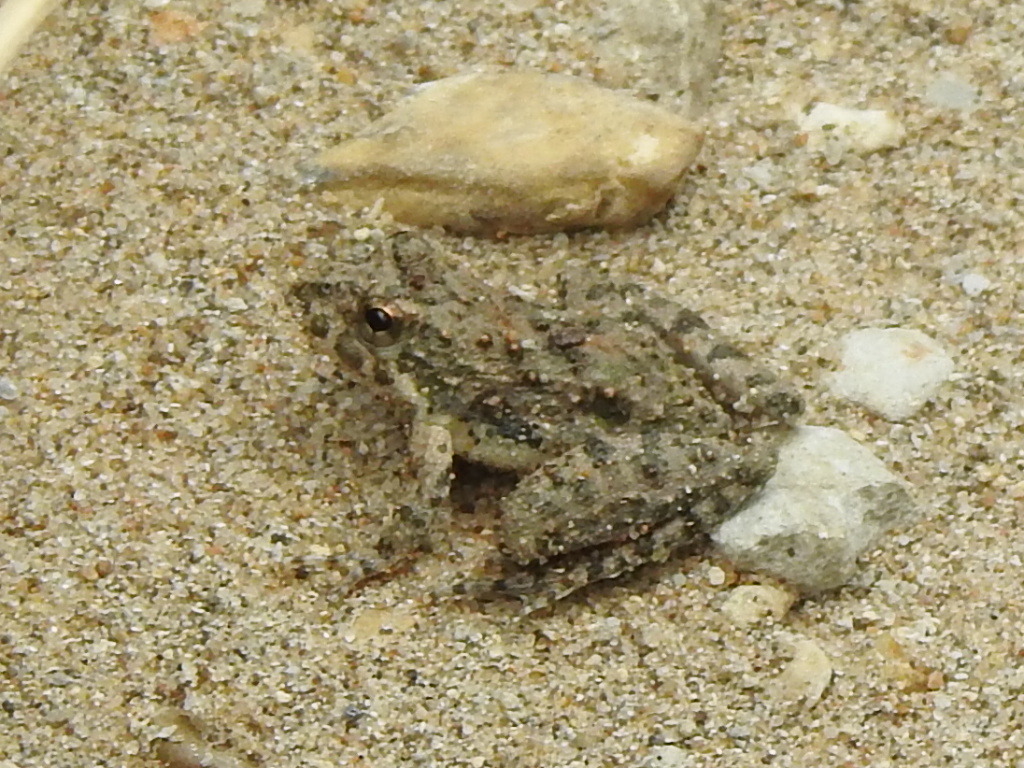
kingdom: Animalia
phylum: Chordata
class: Amphibia
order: Anura
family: Hylidae
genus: Acris
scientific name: Acris blanchardi
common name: Blanchard's cricket frog
